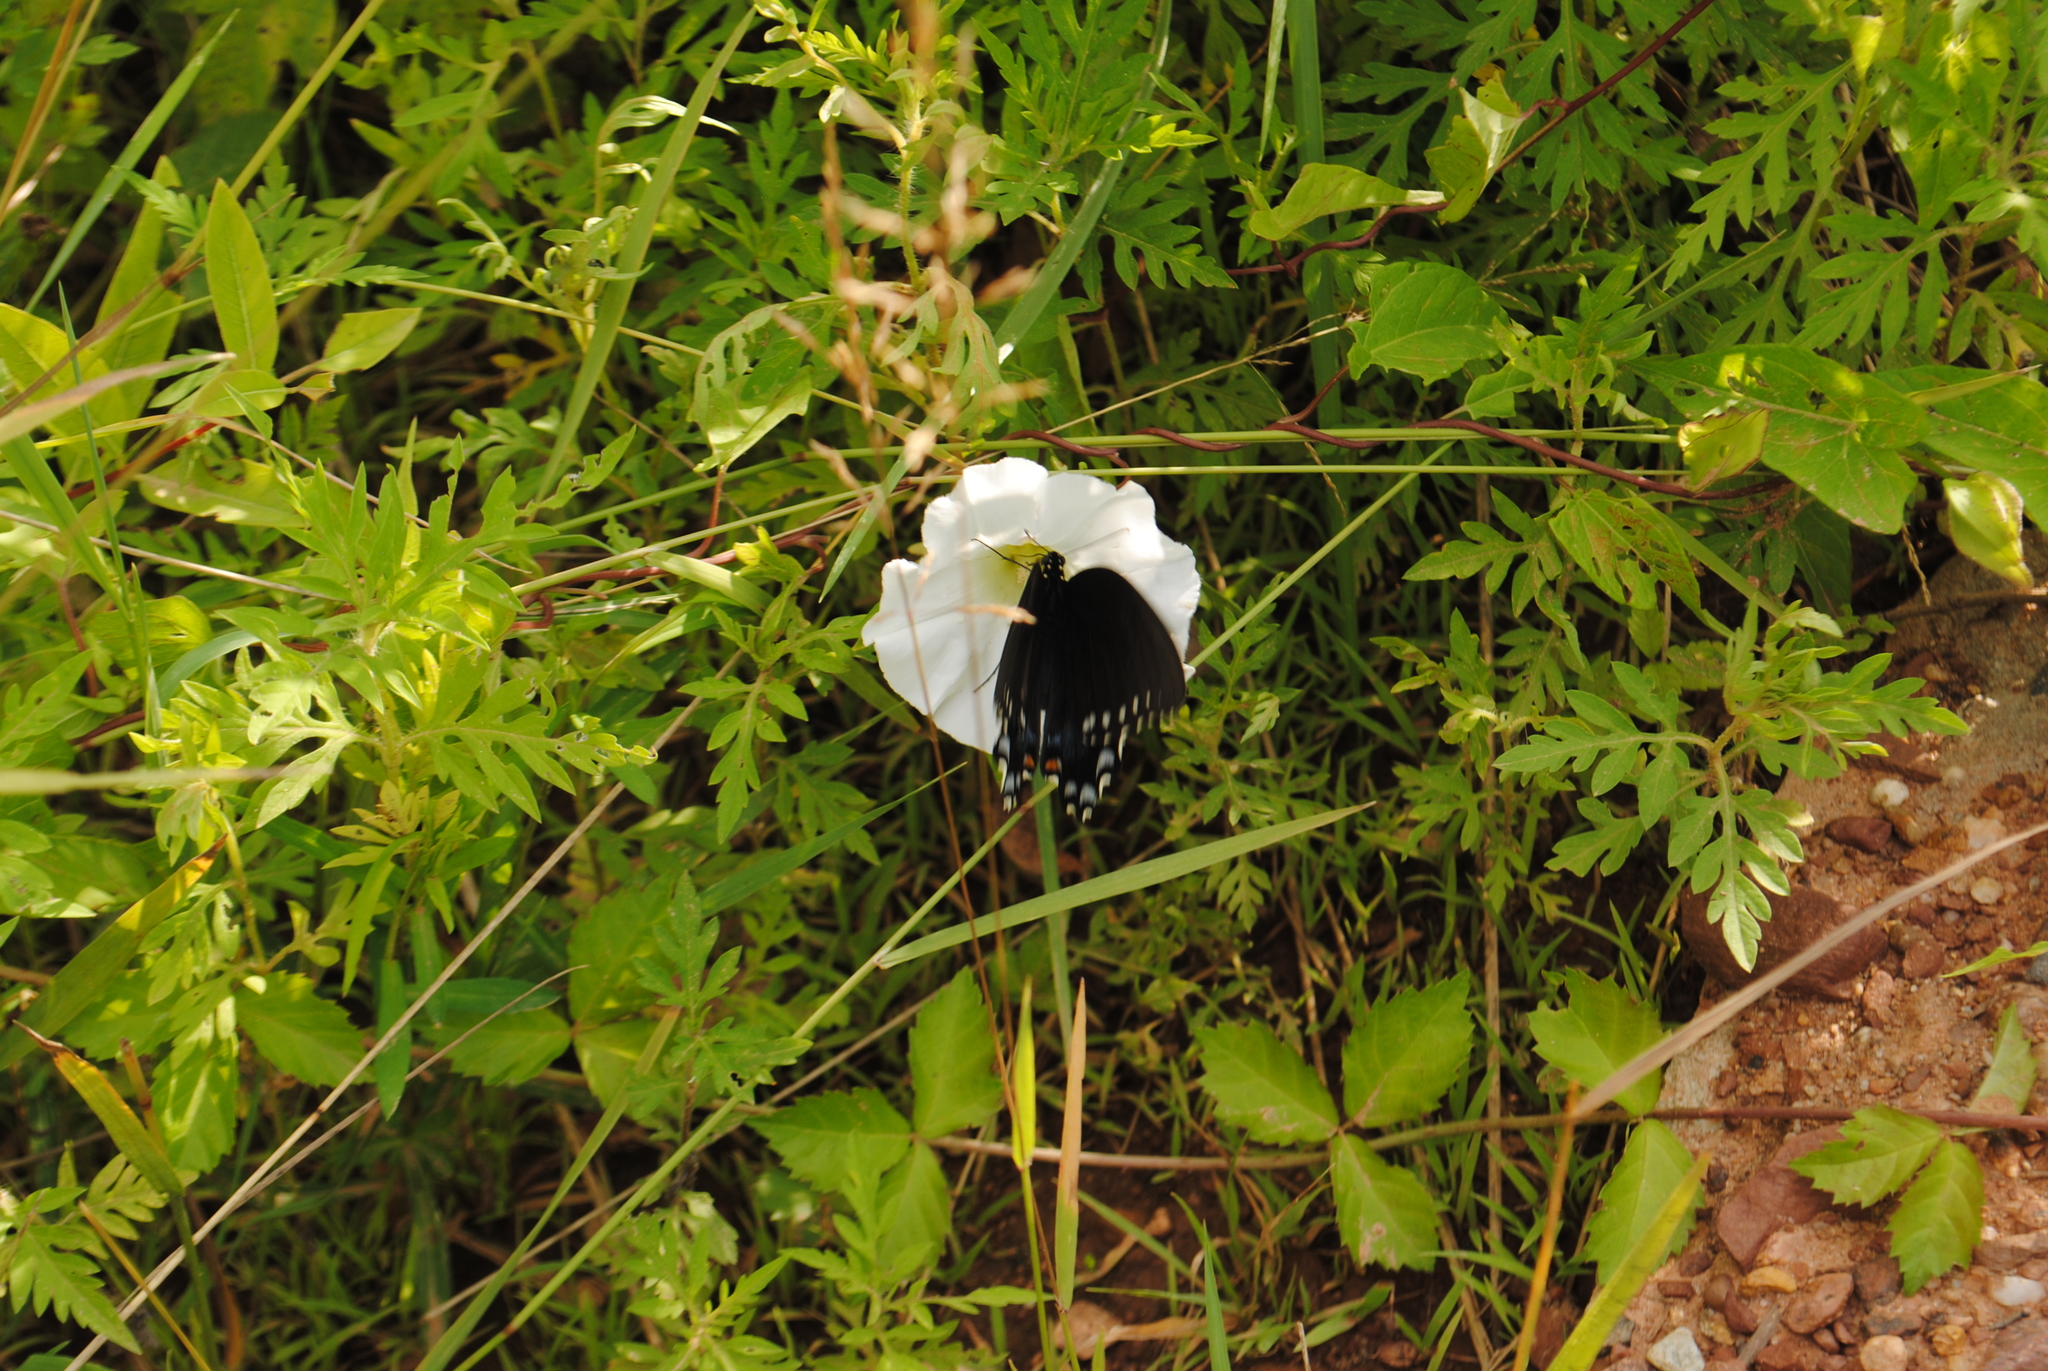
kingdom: Animalia
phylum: Arthropoda
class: Insecta
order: Lepidoptera
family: Papilionidae
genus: Papilio
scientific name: Papilio troilus
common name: Spicebush swallowtail
